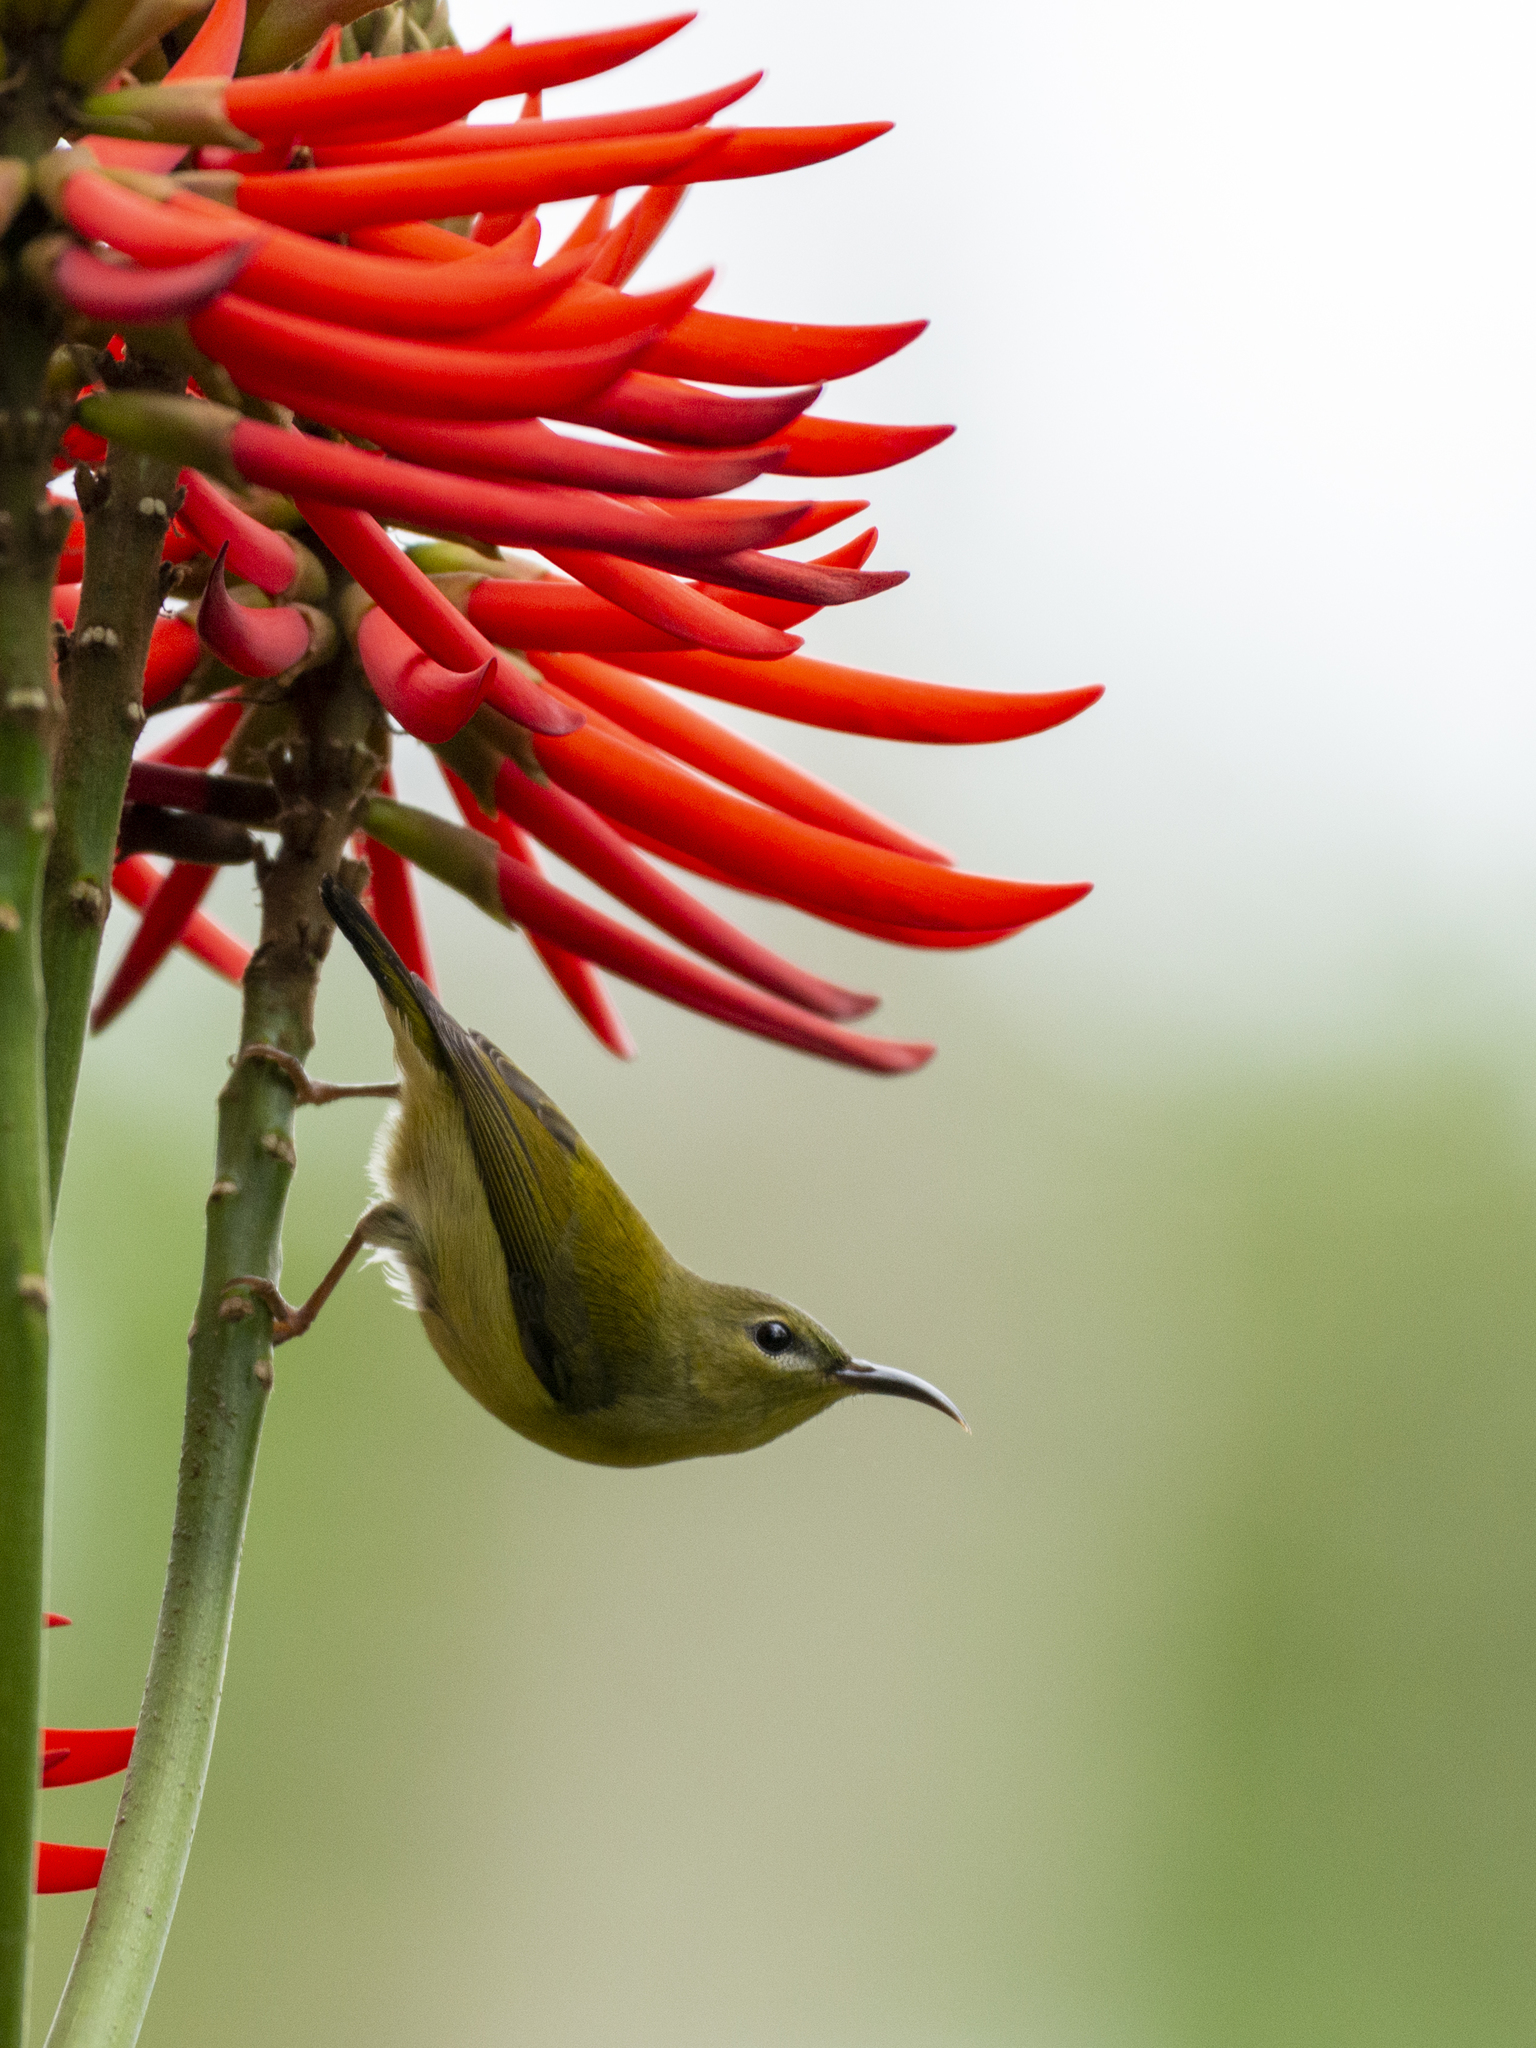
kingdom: Animalia
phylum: Chordata
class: Aves
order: Passeriformes
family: Nectariniidae
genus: Aethopyga
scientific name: Aethopyga christinae
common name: Fork-tailed sunbird
